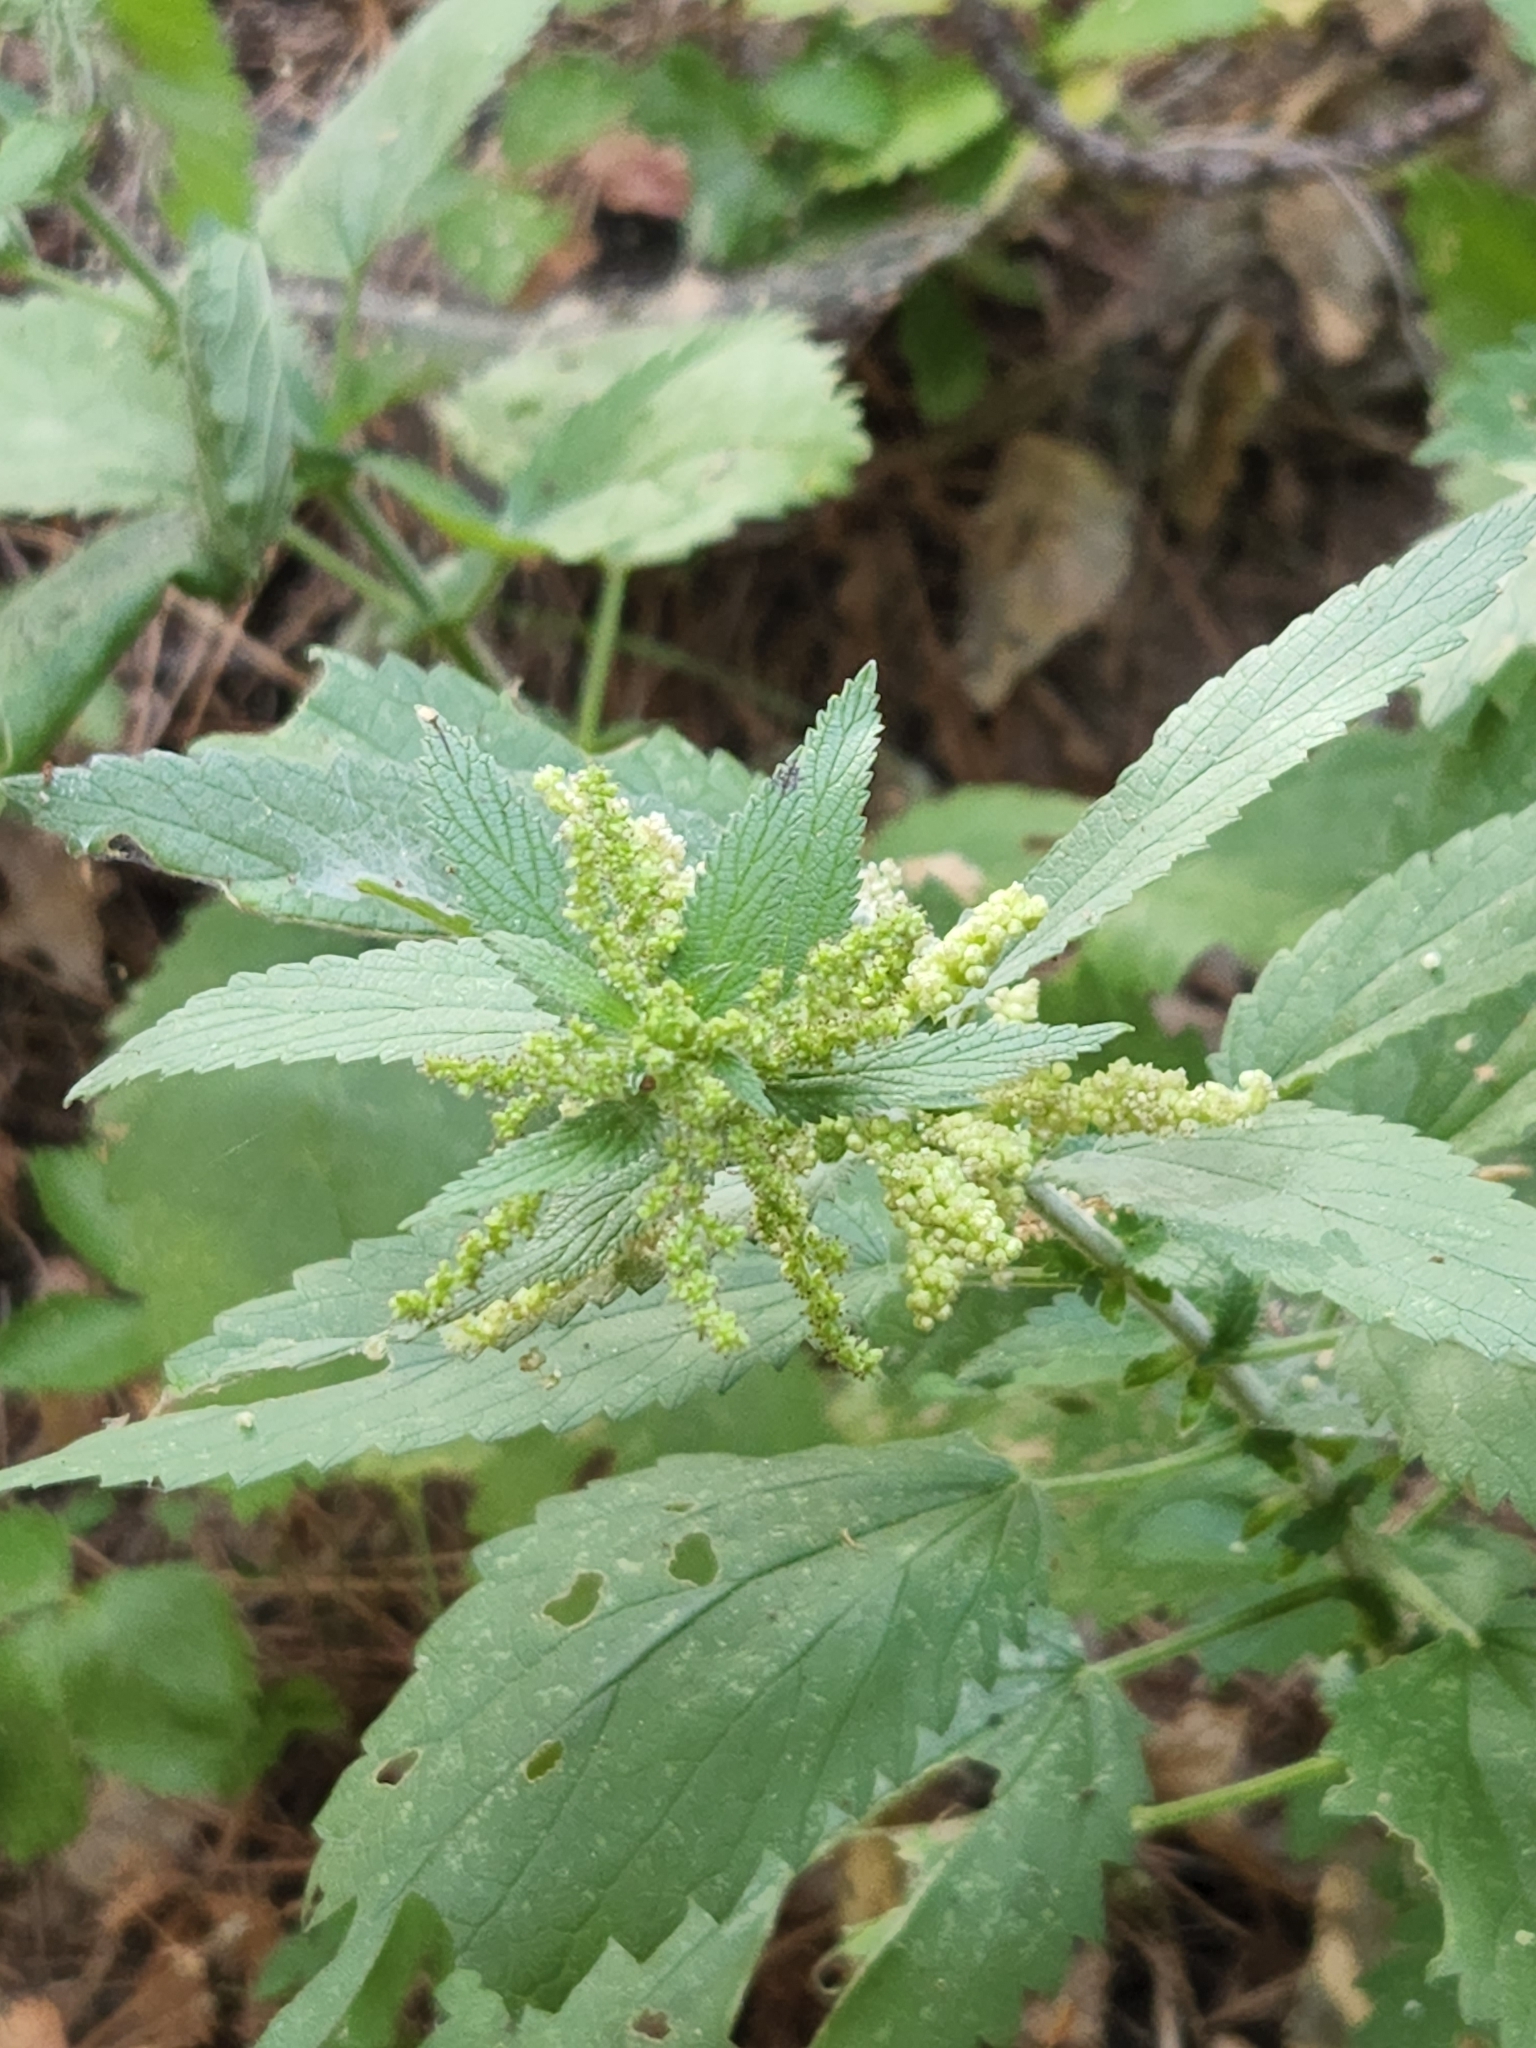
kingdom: Plantae
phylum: Tracheophyta
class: Magnoliopsida
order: Rosales
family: Urticaceae
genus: Urtica
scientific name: Urtica gracilis
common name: Slender stinging nettle
